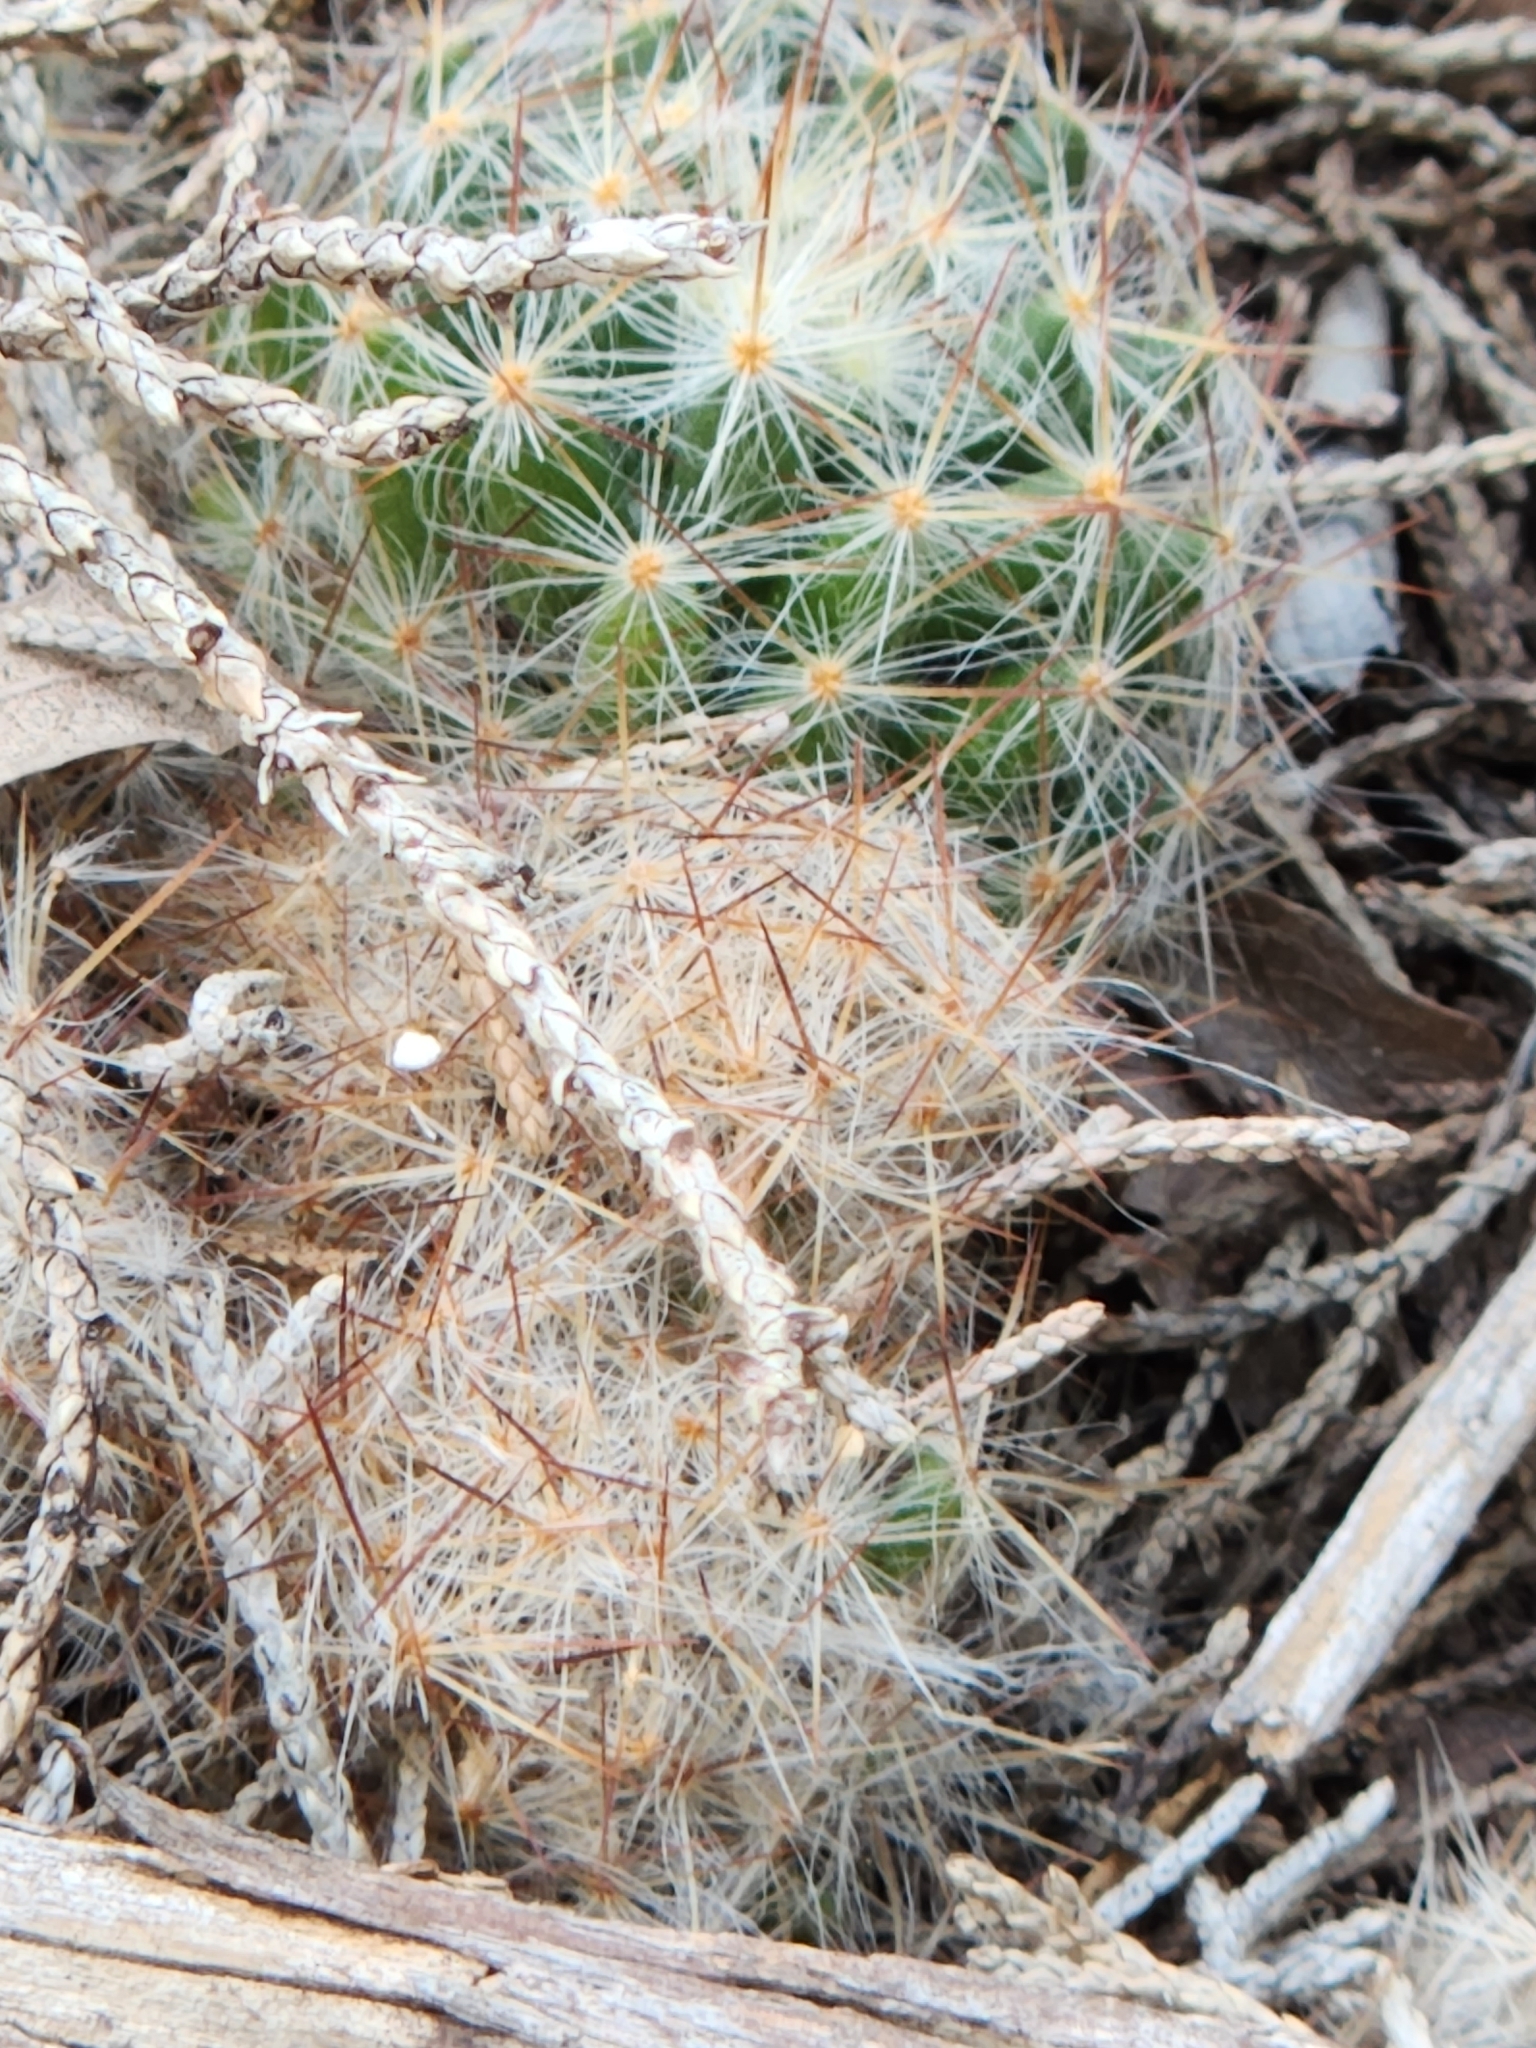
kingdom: Plantae
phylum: Tracheophyta
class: Magnoliopsida
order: Caryophyllales
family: Cactaceae
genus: Mammillaria
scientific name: Mammillaria prolifera
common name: Texas nipple cactus
